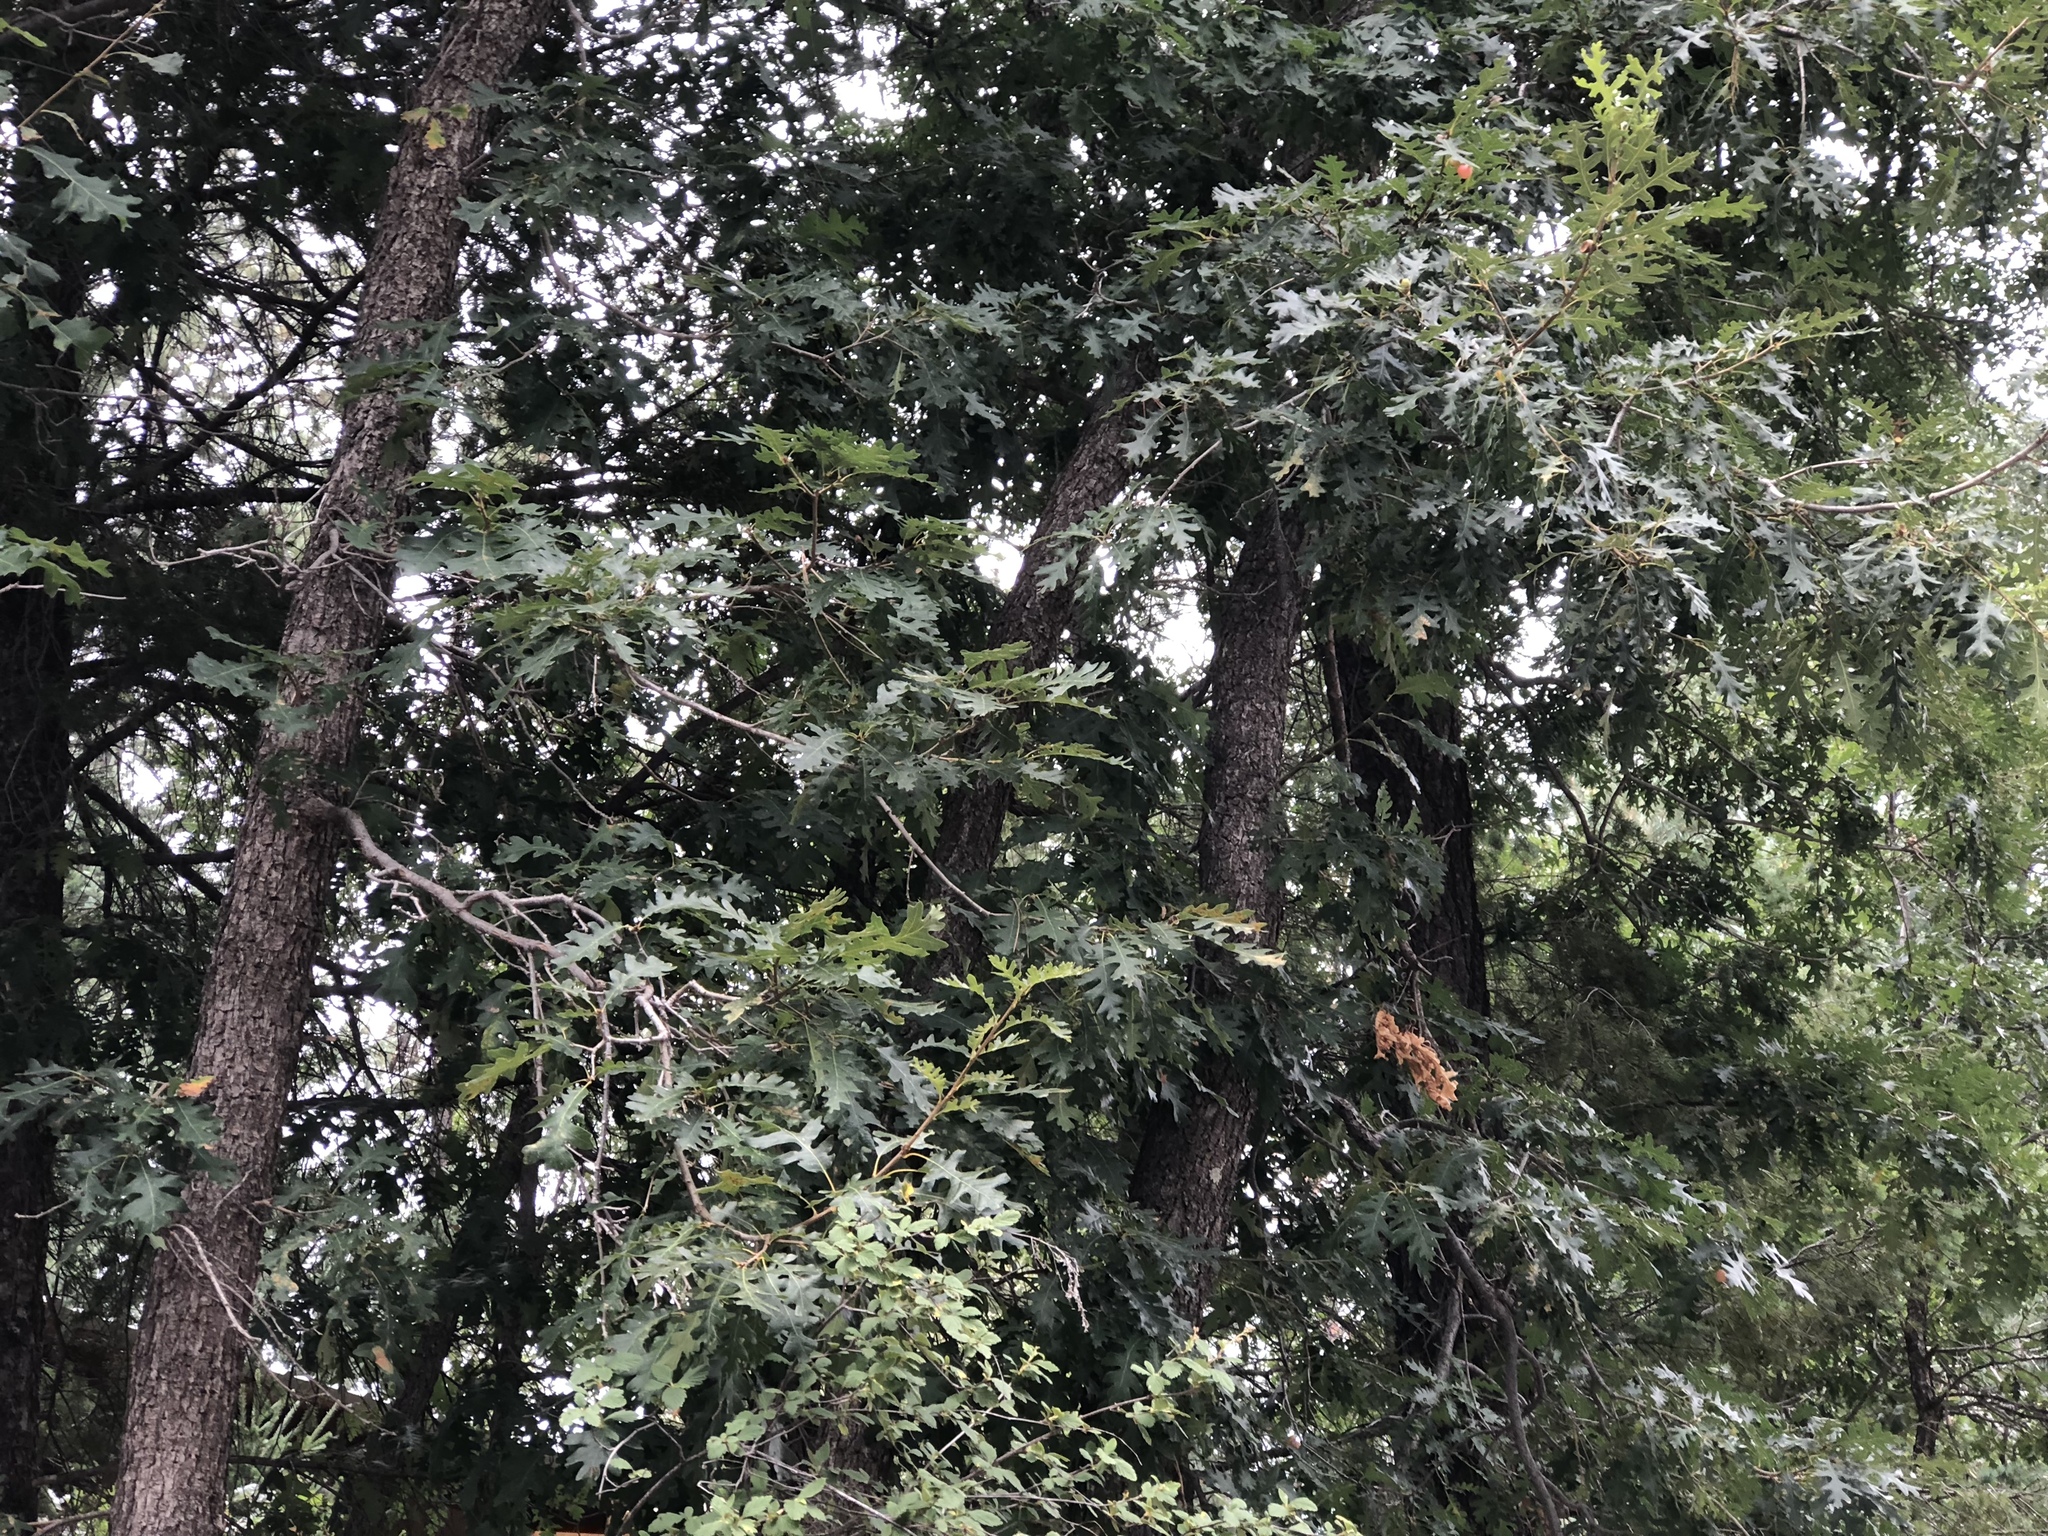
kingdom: Plantae
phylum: Tracheophyta
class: Magnoliopsida
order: Fagales
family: Fagaceae
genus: Quercus
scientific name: Quercus gambelii
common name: Gambel oak
